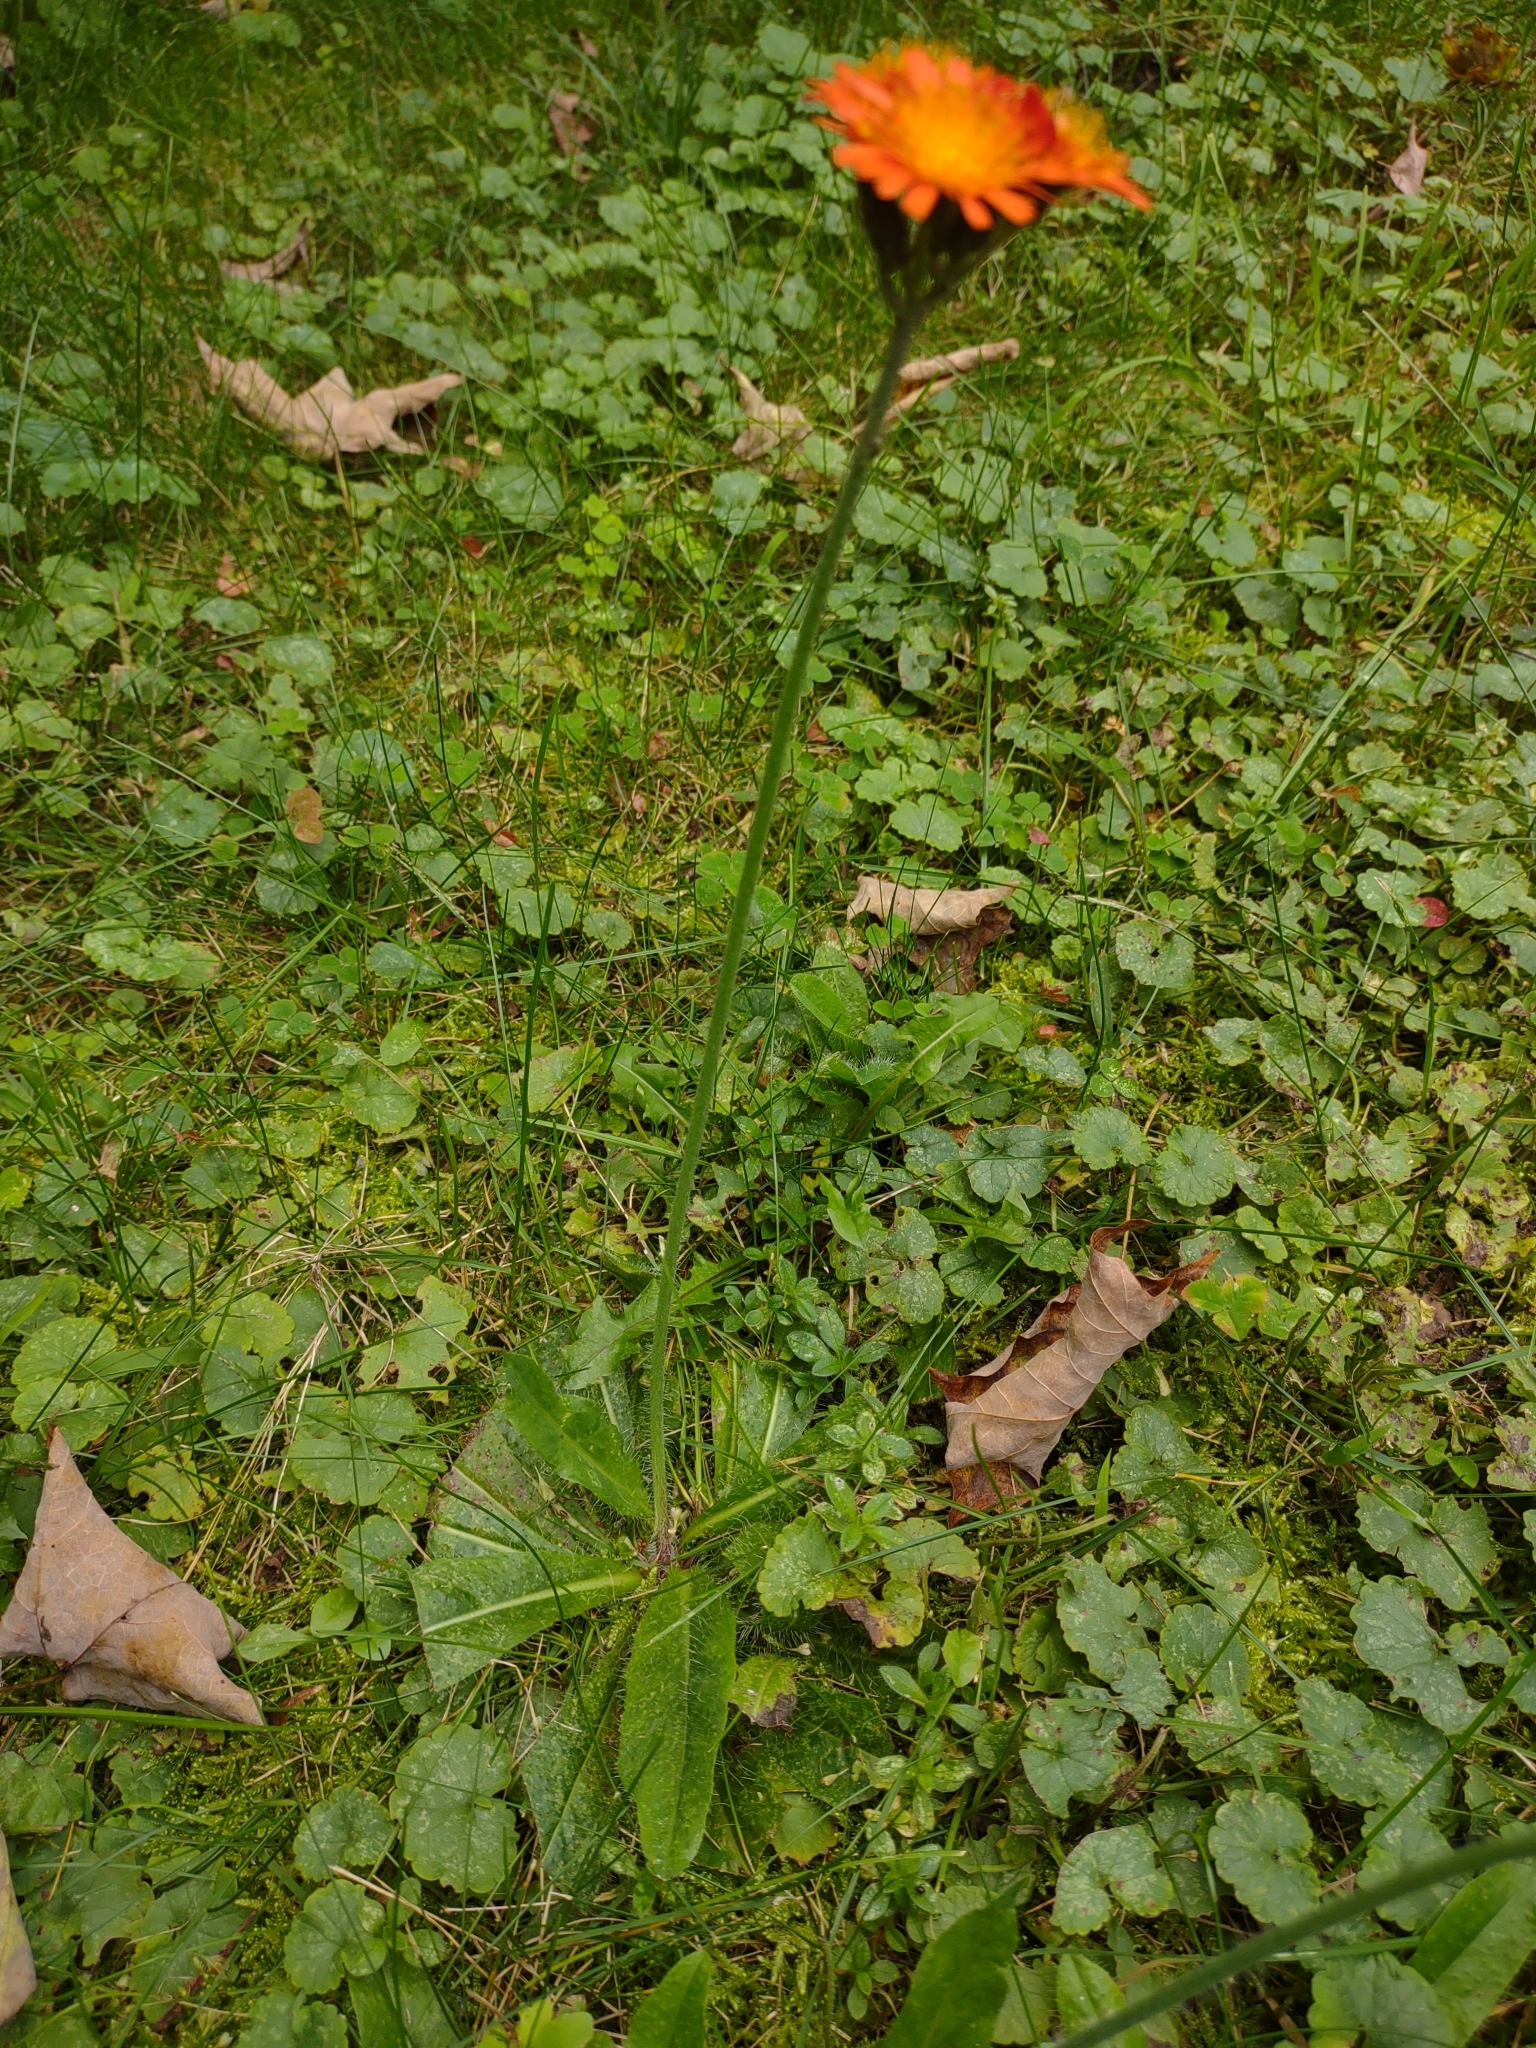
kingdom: Plantae
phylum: Tracheophyta
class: Magnoliopsida
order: Asterales
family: Asteraceae
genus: Pilosella
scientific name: Pilosella aurantiaca
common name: Fox-and-cubs
